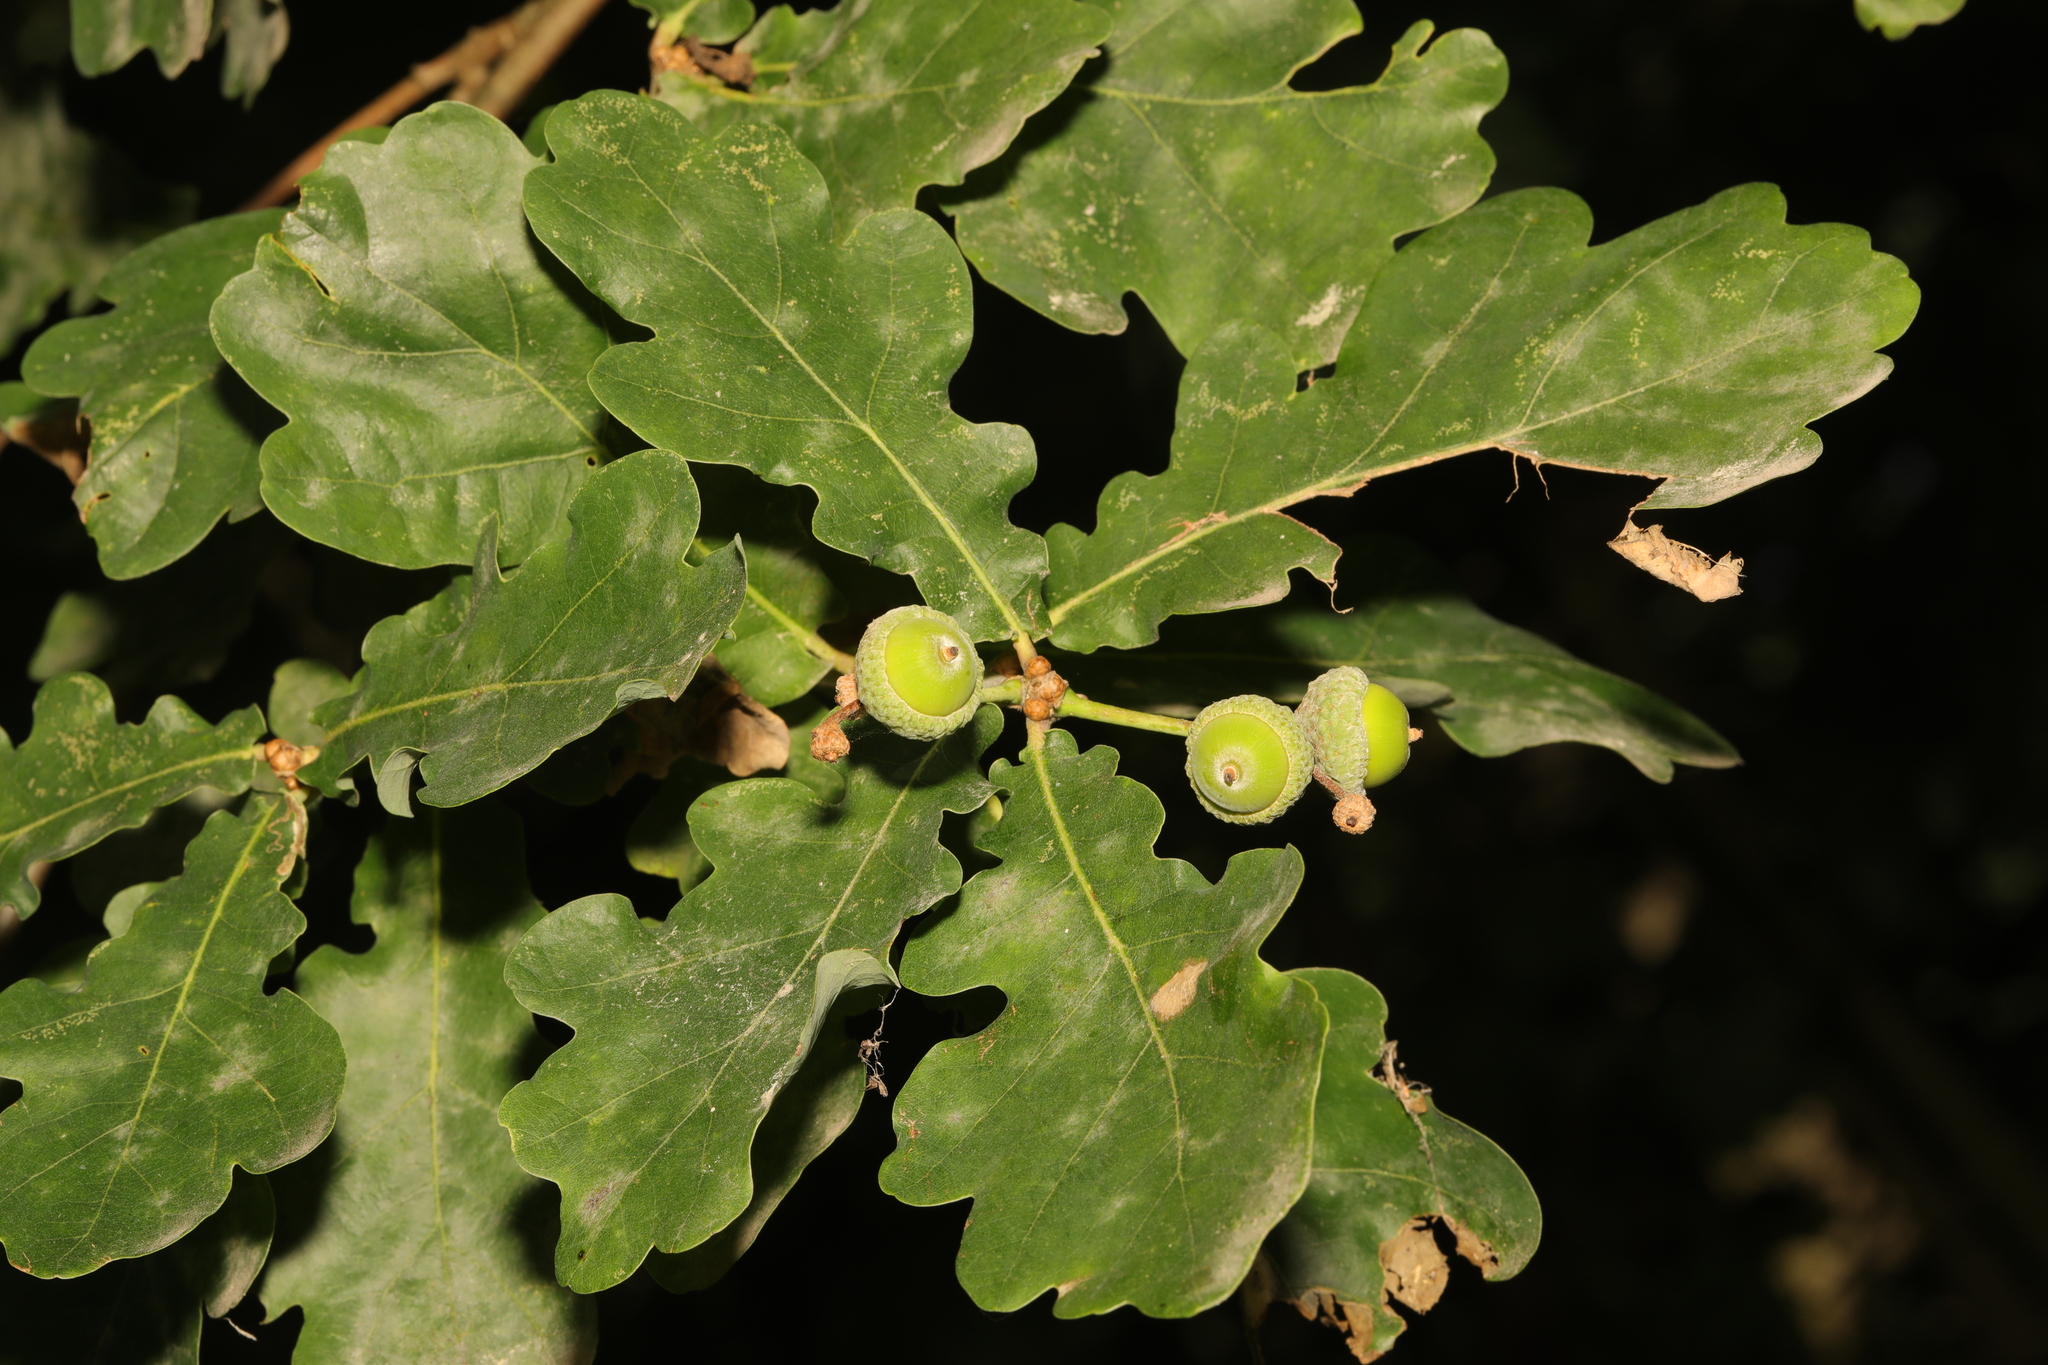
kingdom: Plantae
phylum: Tracheophyta
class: Magnoliopsida
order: Fagales
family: Fagaceae
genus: Quercus
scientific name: Quercus robur
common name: Pedunculate oak
